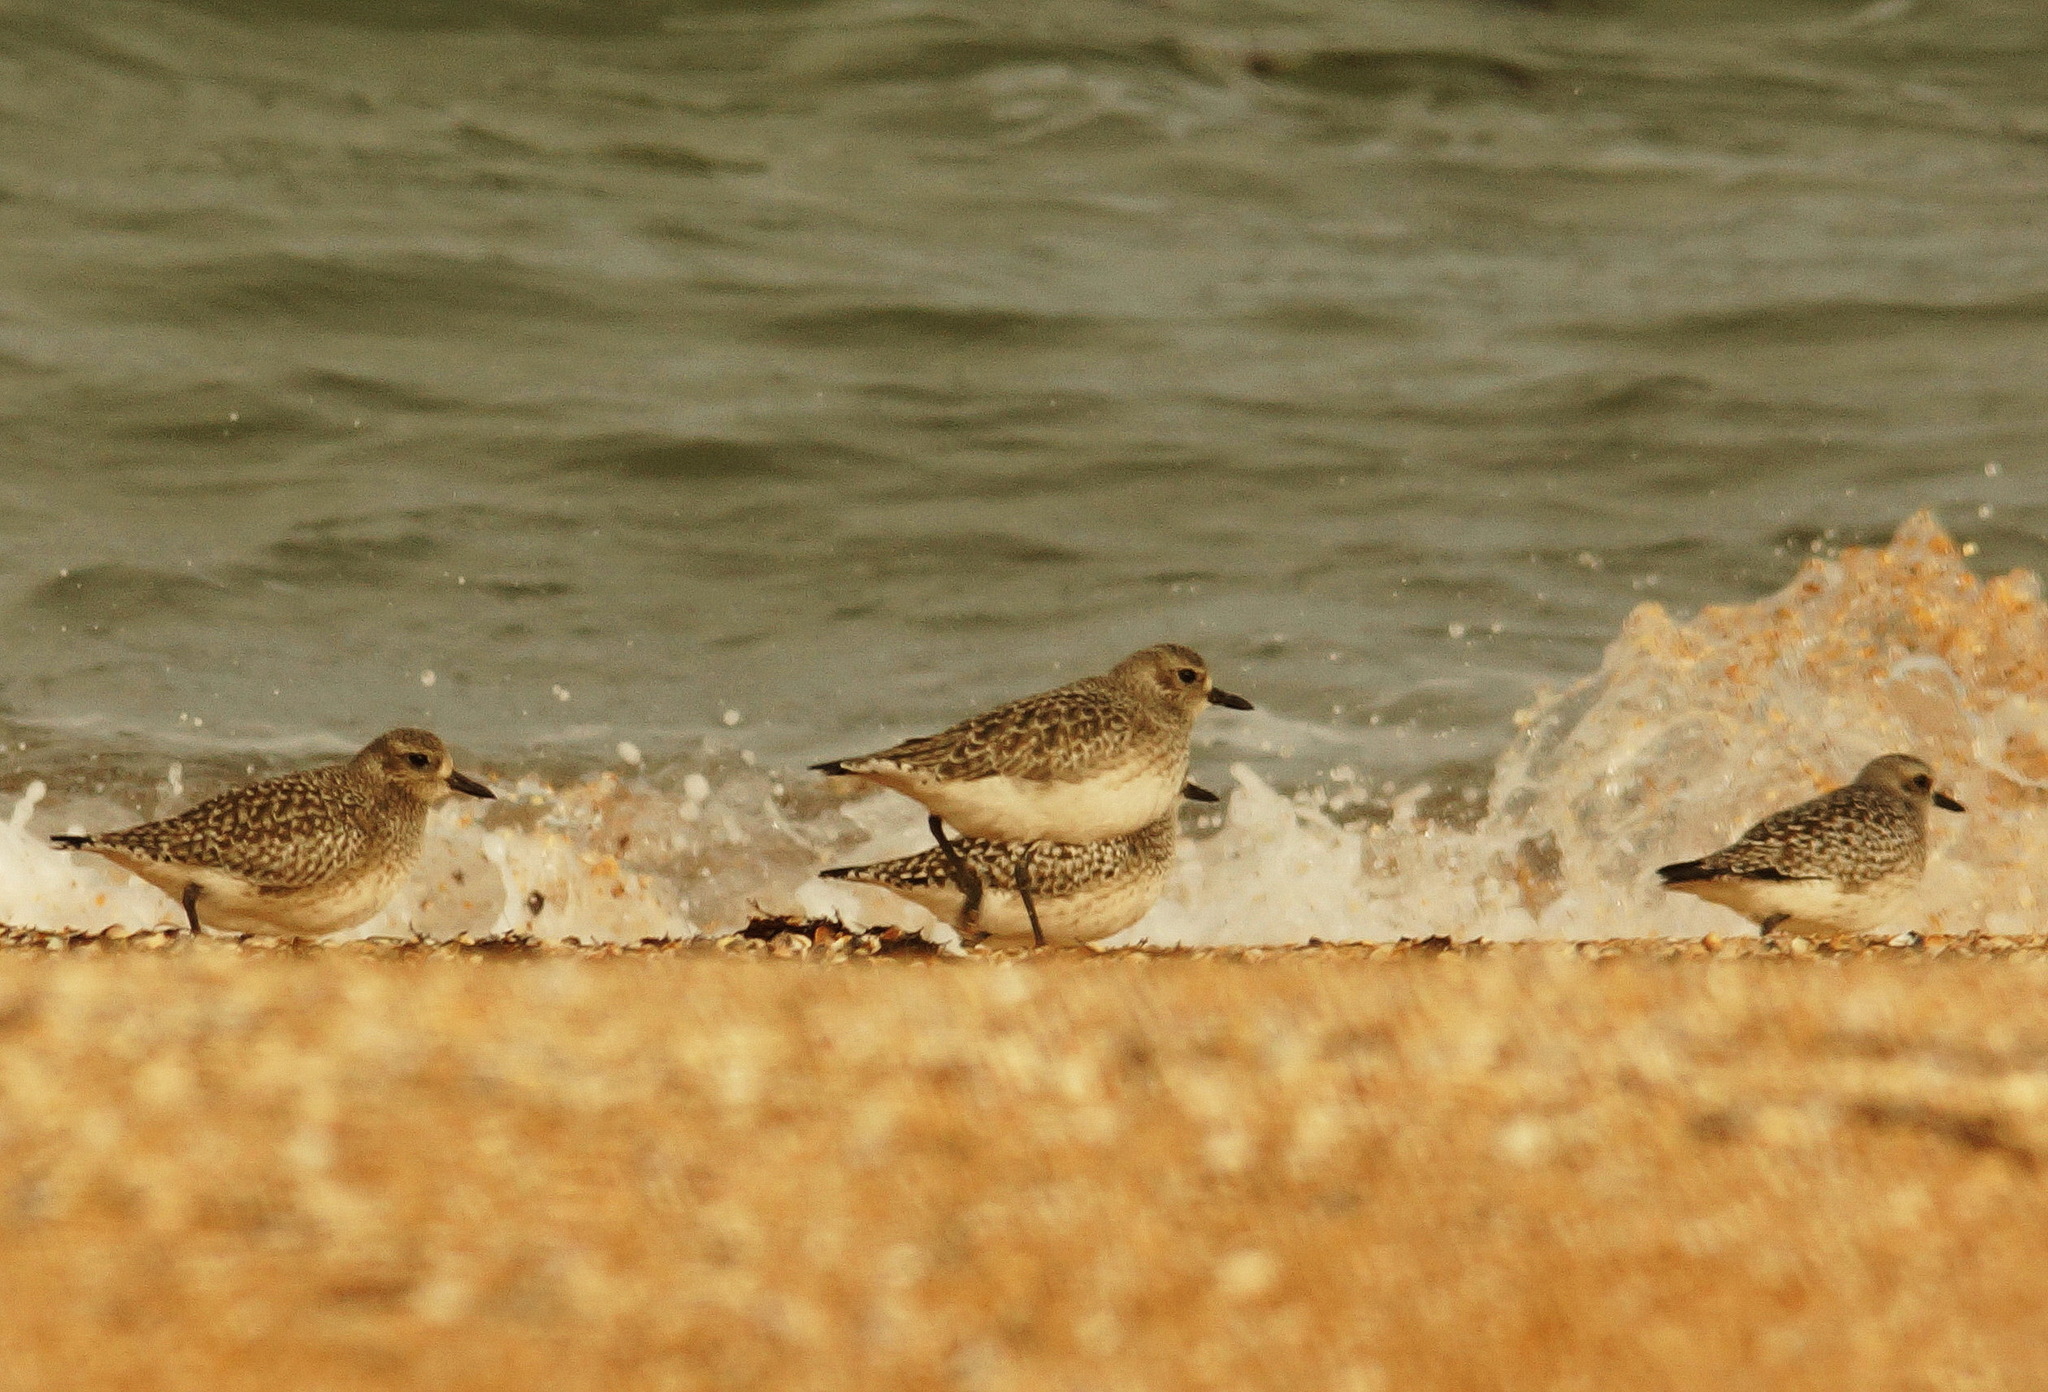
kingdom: Animalia
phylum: Chordata
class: Aves
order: Charadriiformes
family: Charadriidae
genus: Pluvialis
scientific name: Pluvialis squatarola
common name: Grey plover
